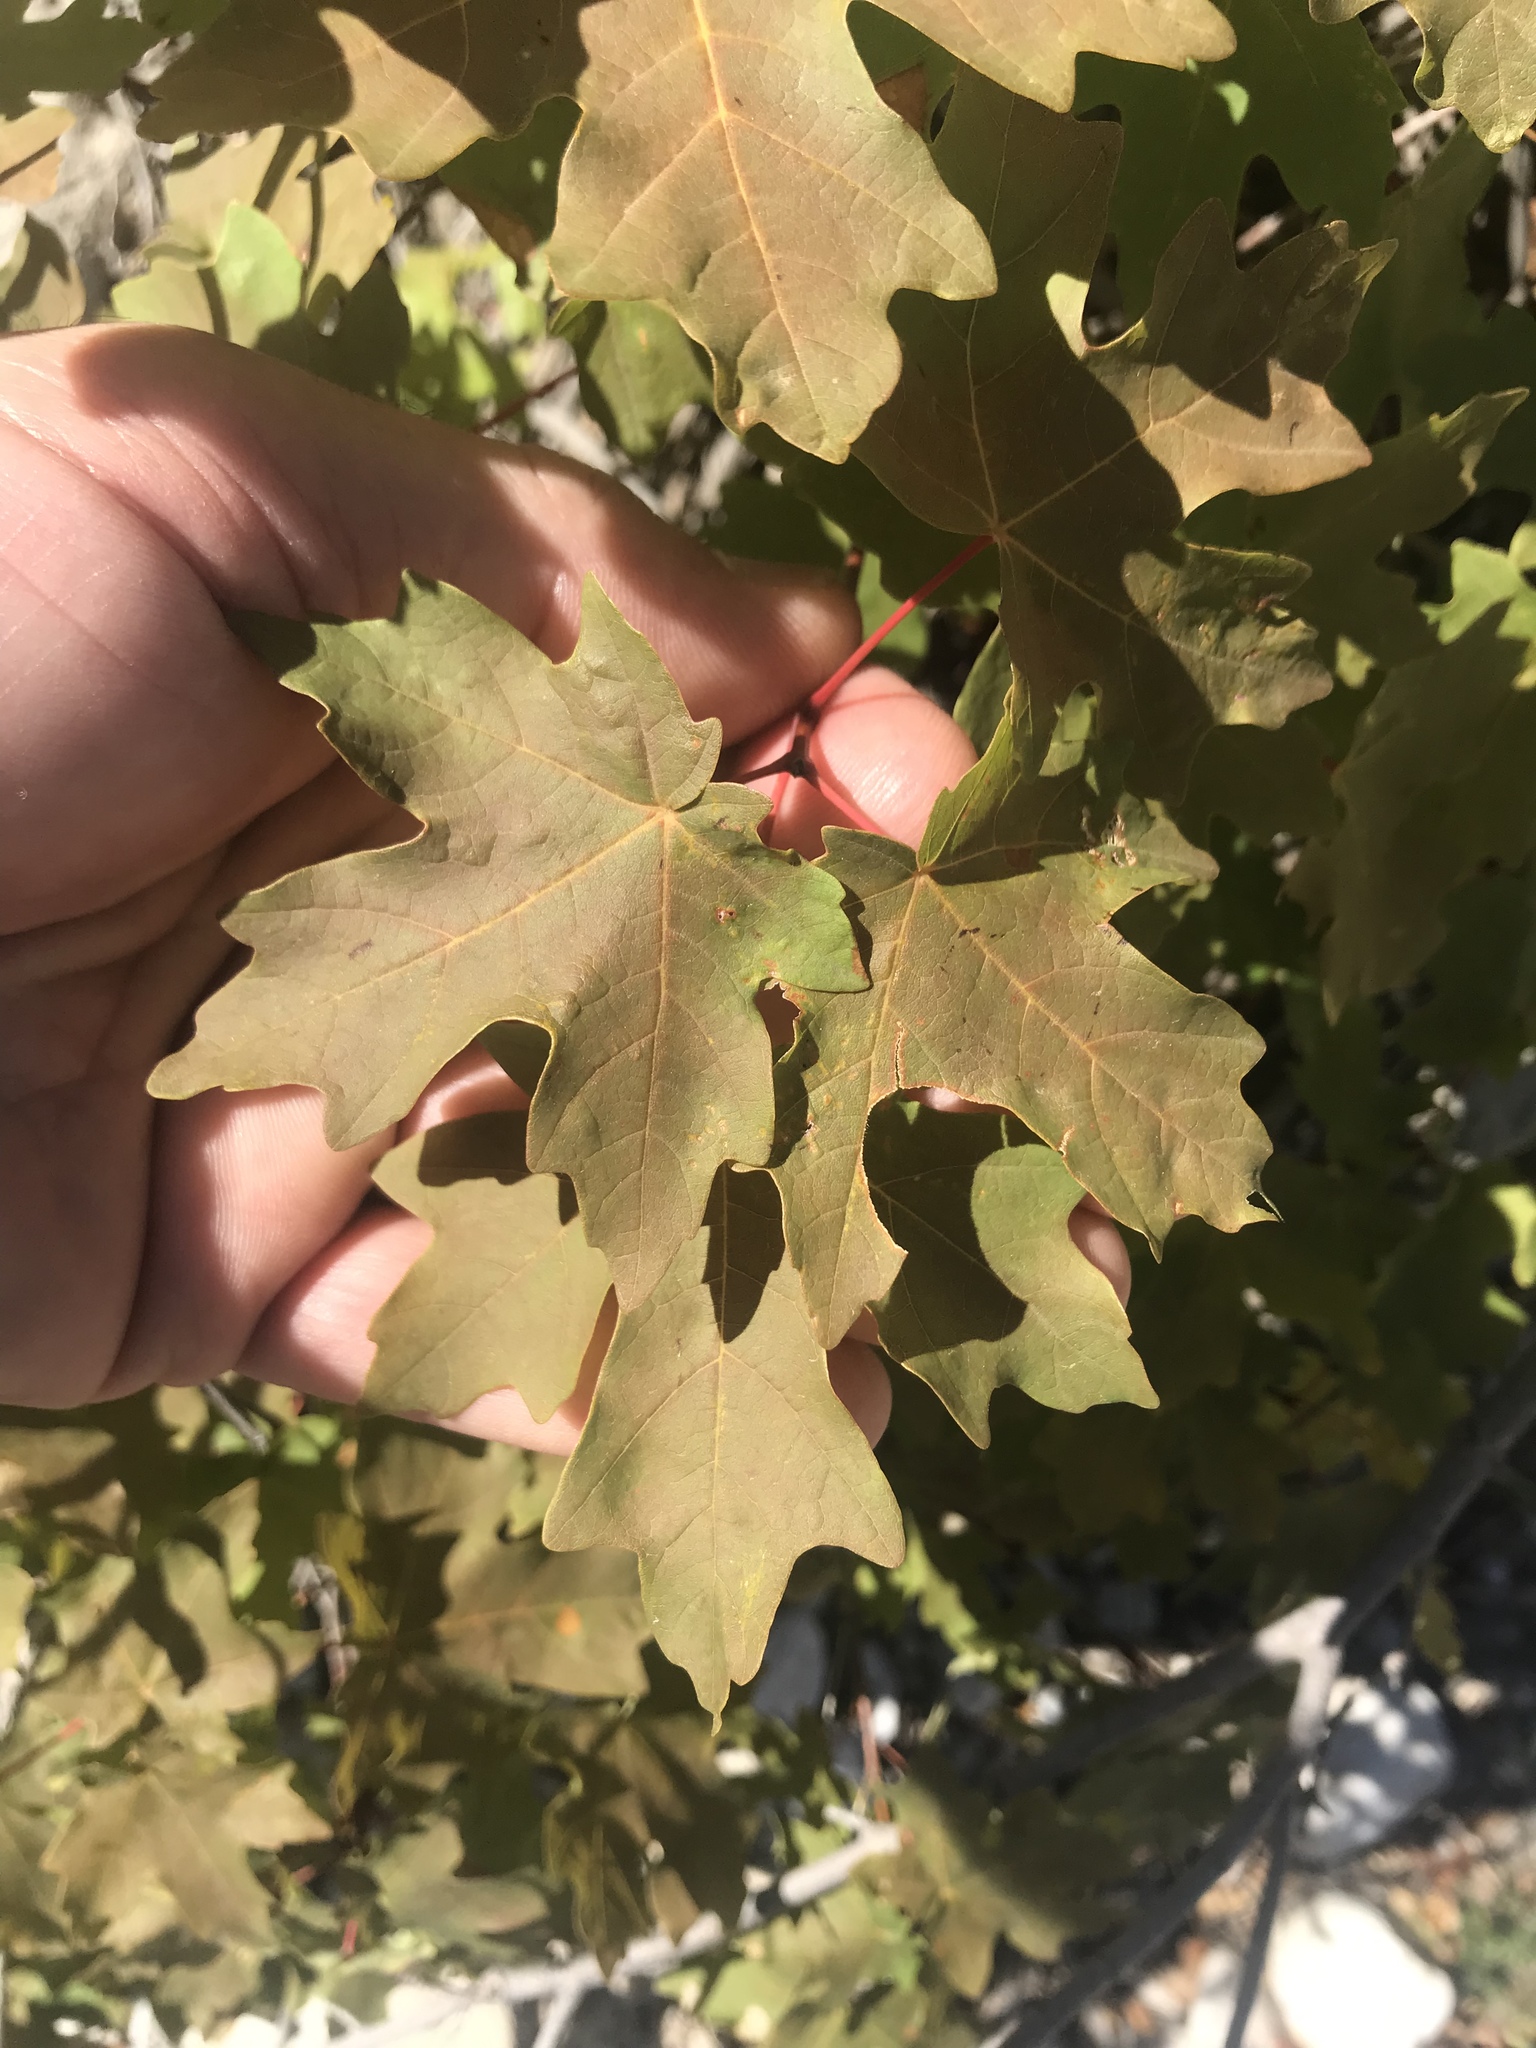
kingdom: Plantae
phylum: Tracheophyta
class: Magnoliopsida
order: Sapindales
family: Sapindaceae
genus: Acer
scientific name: Acer grandidentatum
